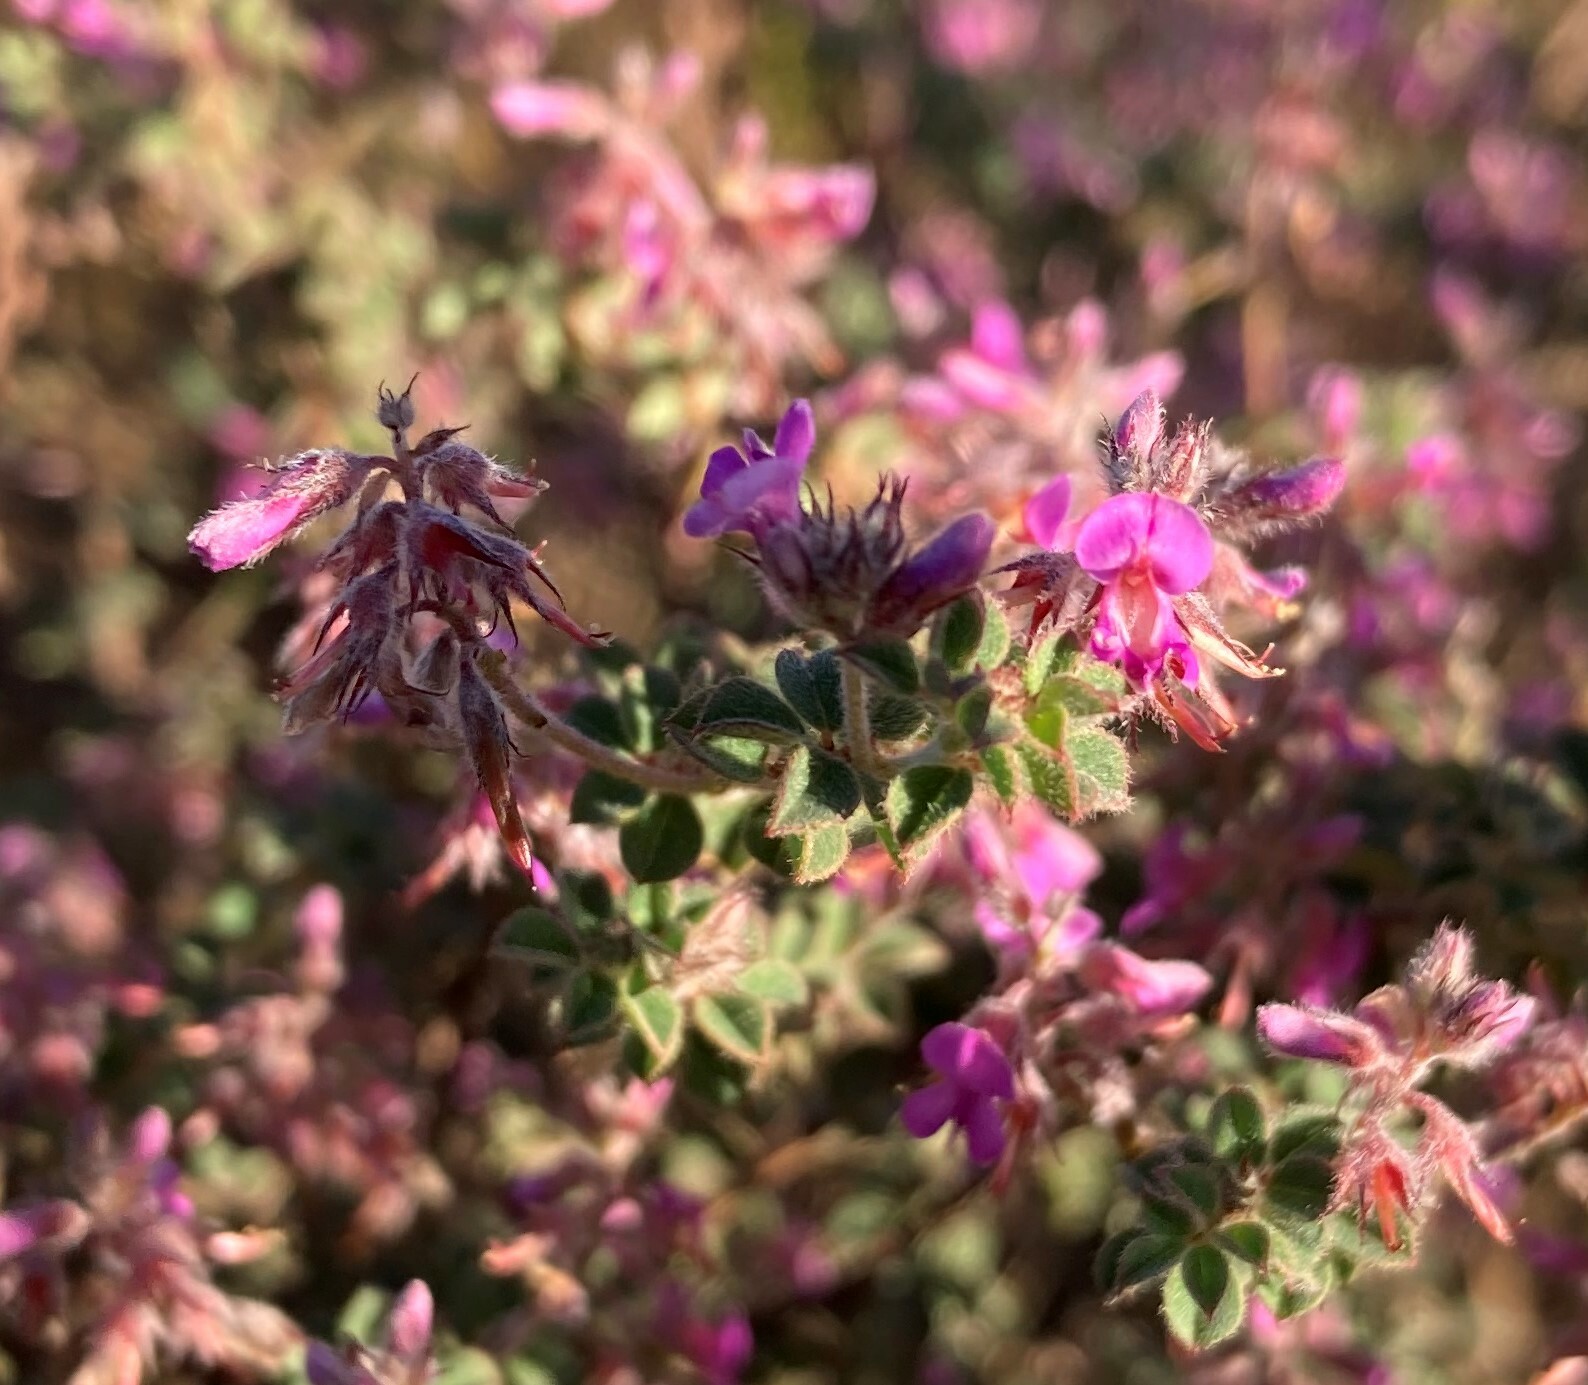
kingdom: Plantae
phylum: Tracheophyta
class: Magnoliopsida
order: Fabales
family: Fabaceae
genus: Indigofera
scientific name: Indigofera alopecuroides
